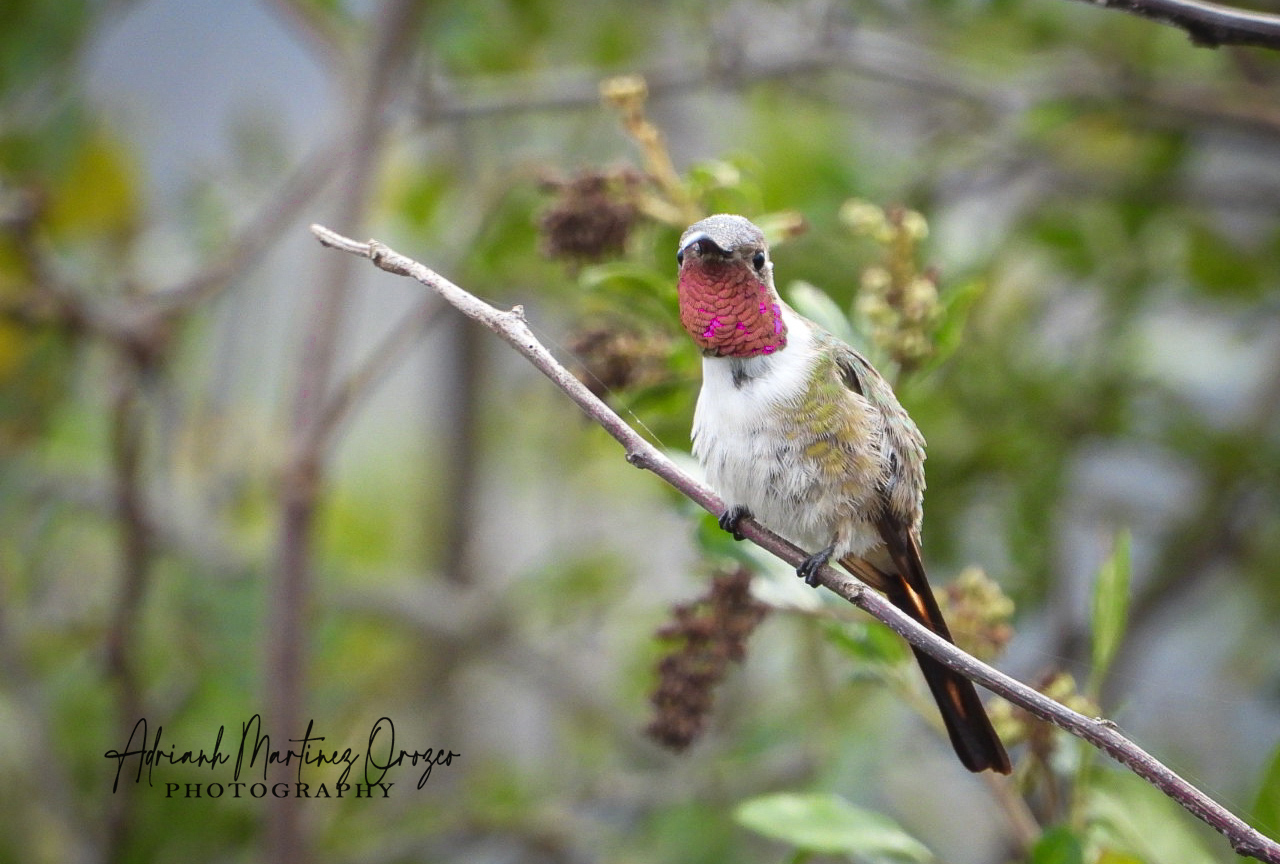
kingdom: Animalia
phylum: Chordata
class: Aves
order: Apodiformes
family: Trochilidae
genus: Doricha
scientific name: Doricha eliza
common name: Mexican sheartail
